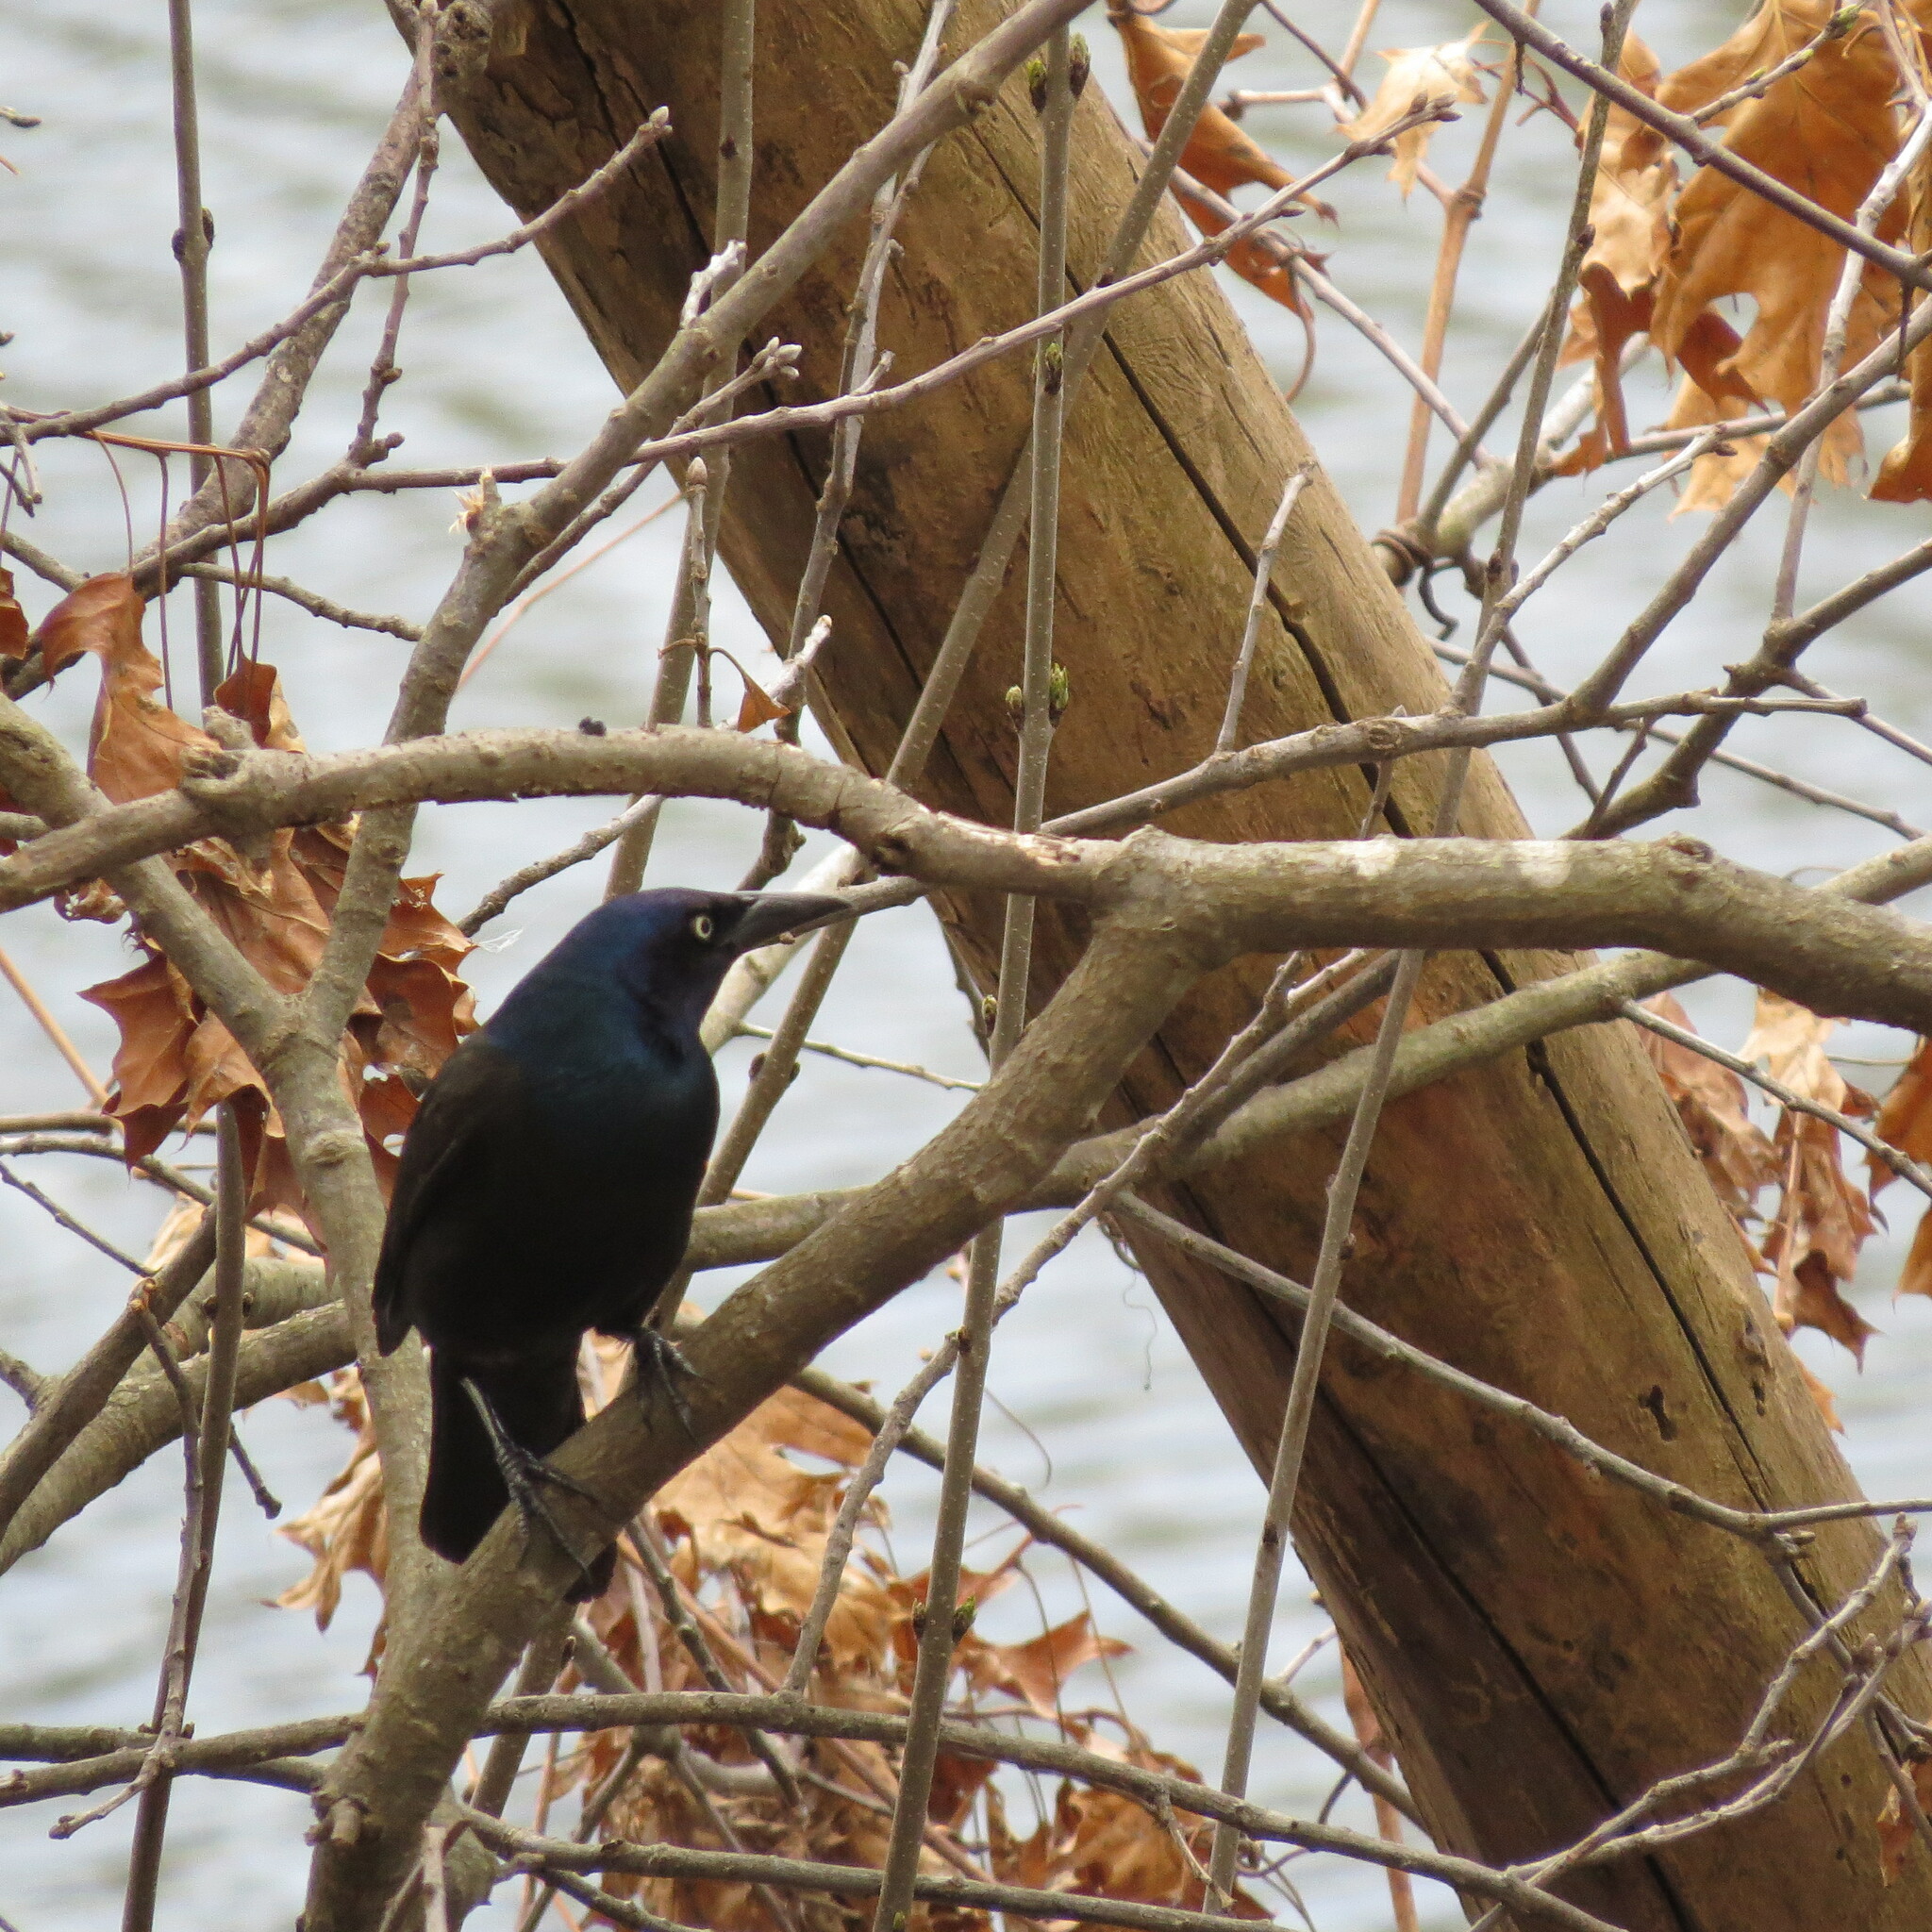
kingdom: Animalia
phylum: Chordata
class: Aves
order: Passeriformes
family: Icteridae
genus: Quiscalus
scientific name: Quiscalus quiscula
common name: Common grackle
